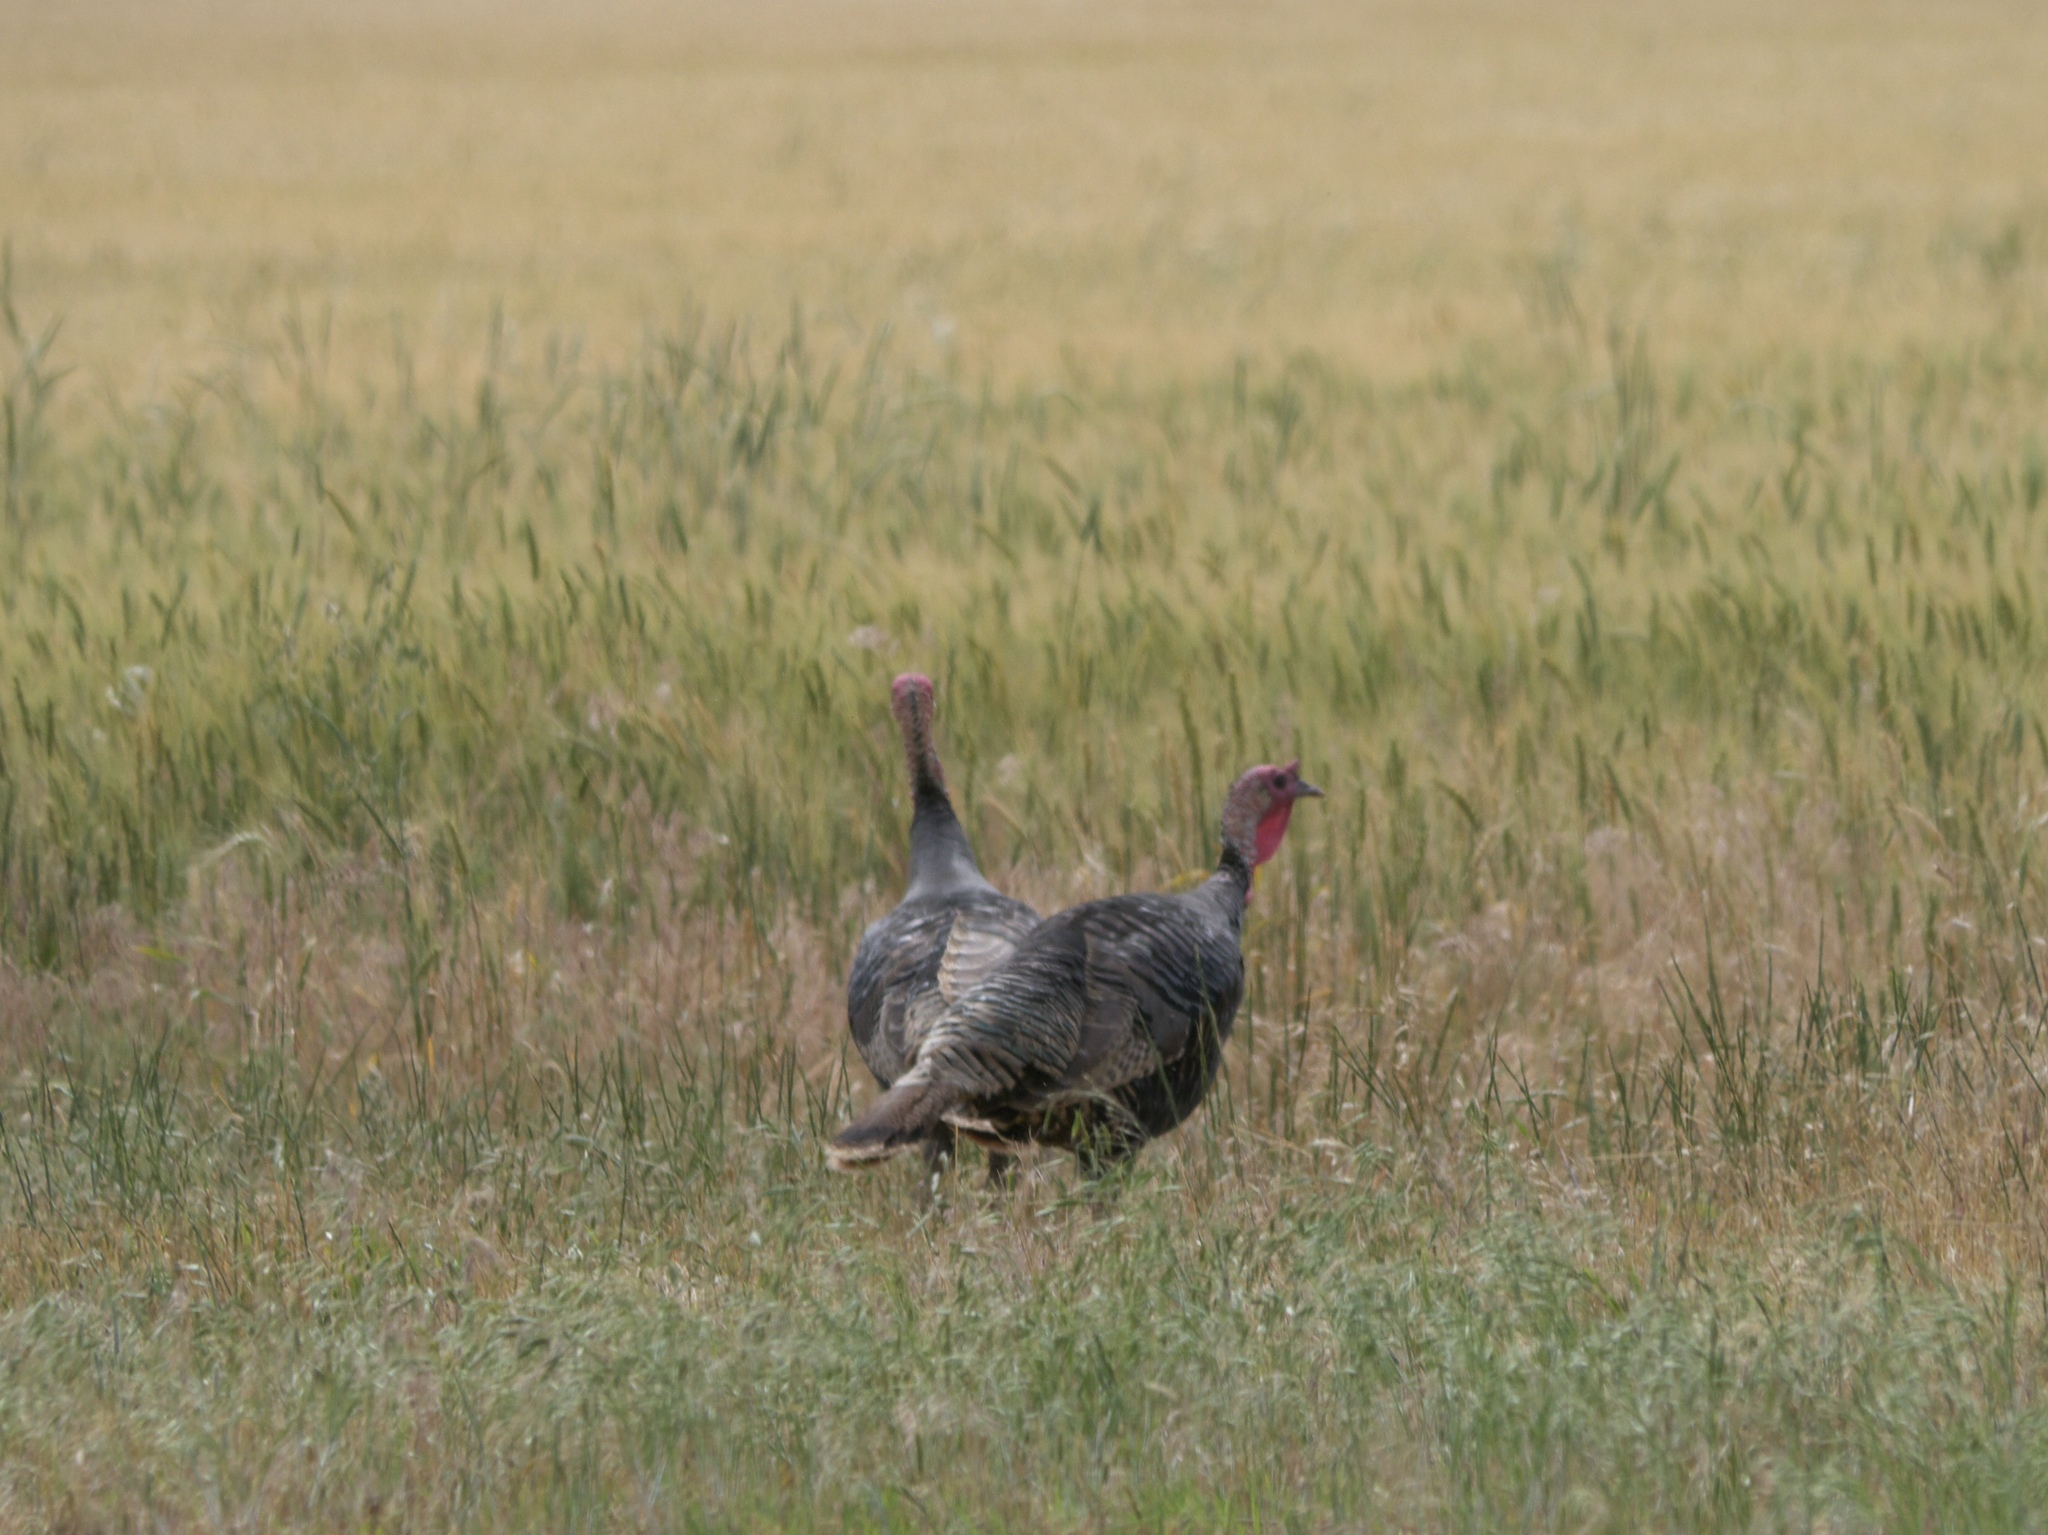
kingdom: Animalia
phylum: Chordata
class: Aves
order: Galliformes
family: Phasianidae
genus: Meleagris
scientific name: Meleagris gallopavo
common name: Wild turkey
